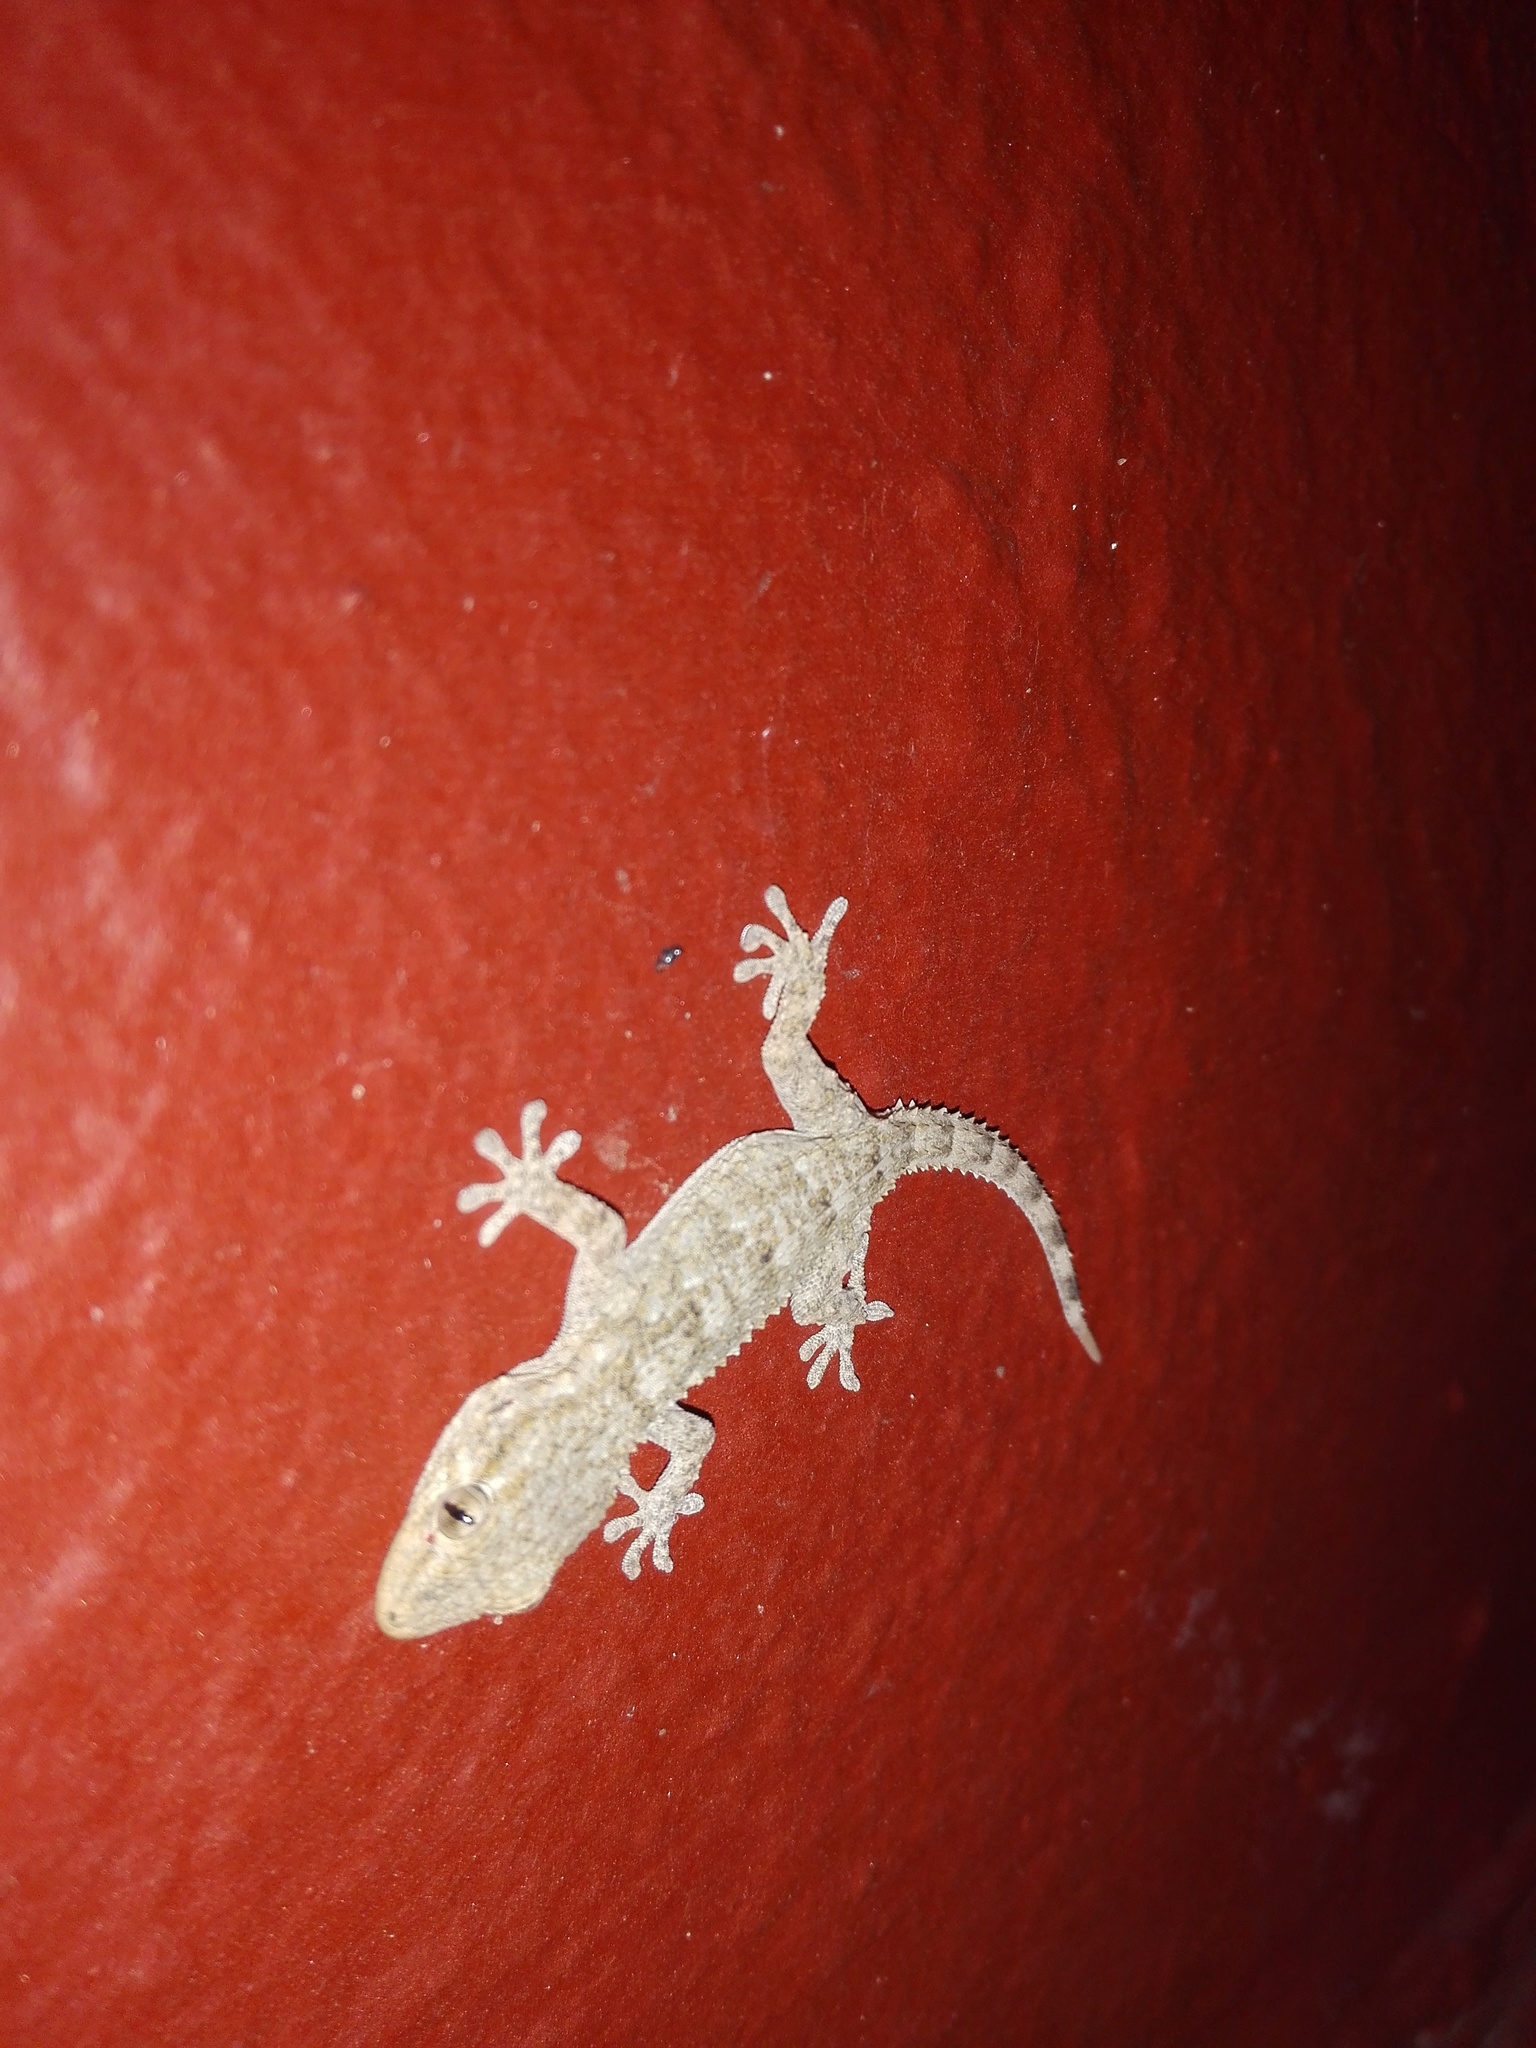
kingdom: Animalia
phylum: Chordata
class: Squamata
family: Phyllodactylidae
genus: Tarentola
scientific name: Tarentola mauritanica
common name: Moorish gecko
